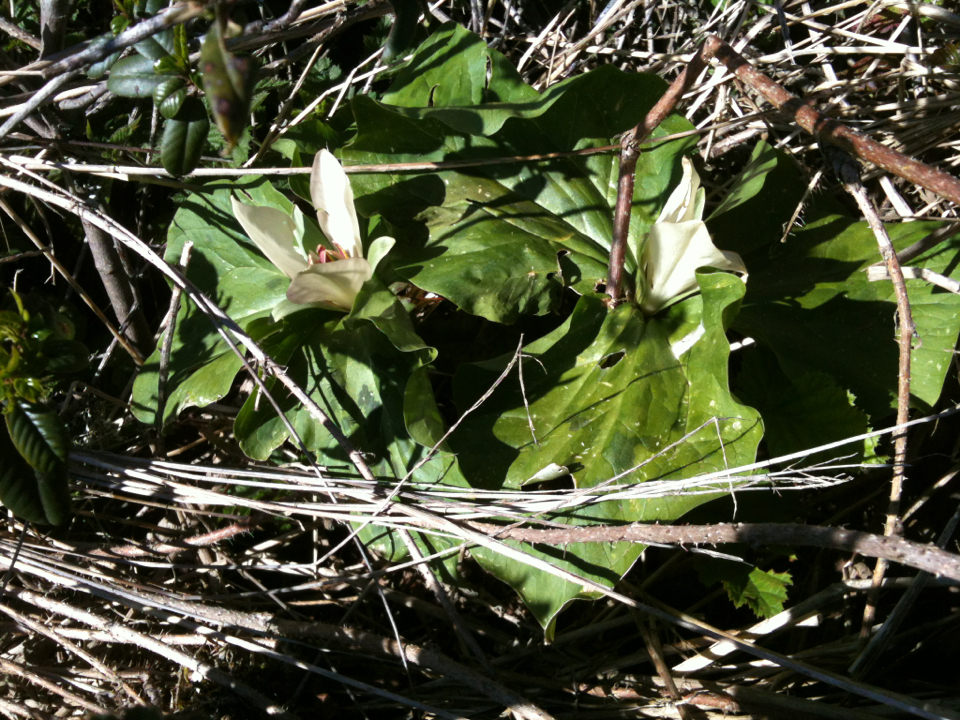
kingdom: Plantae
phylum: Tracheophyta
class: Liliopsida
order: Liliales
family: Melanthiaceae
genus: Trillium
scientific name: Trillium chloropetalum
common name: Giant trillium
